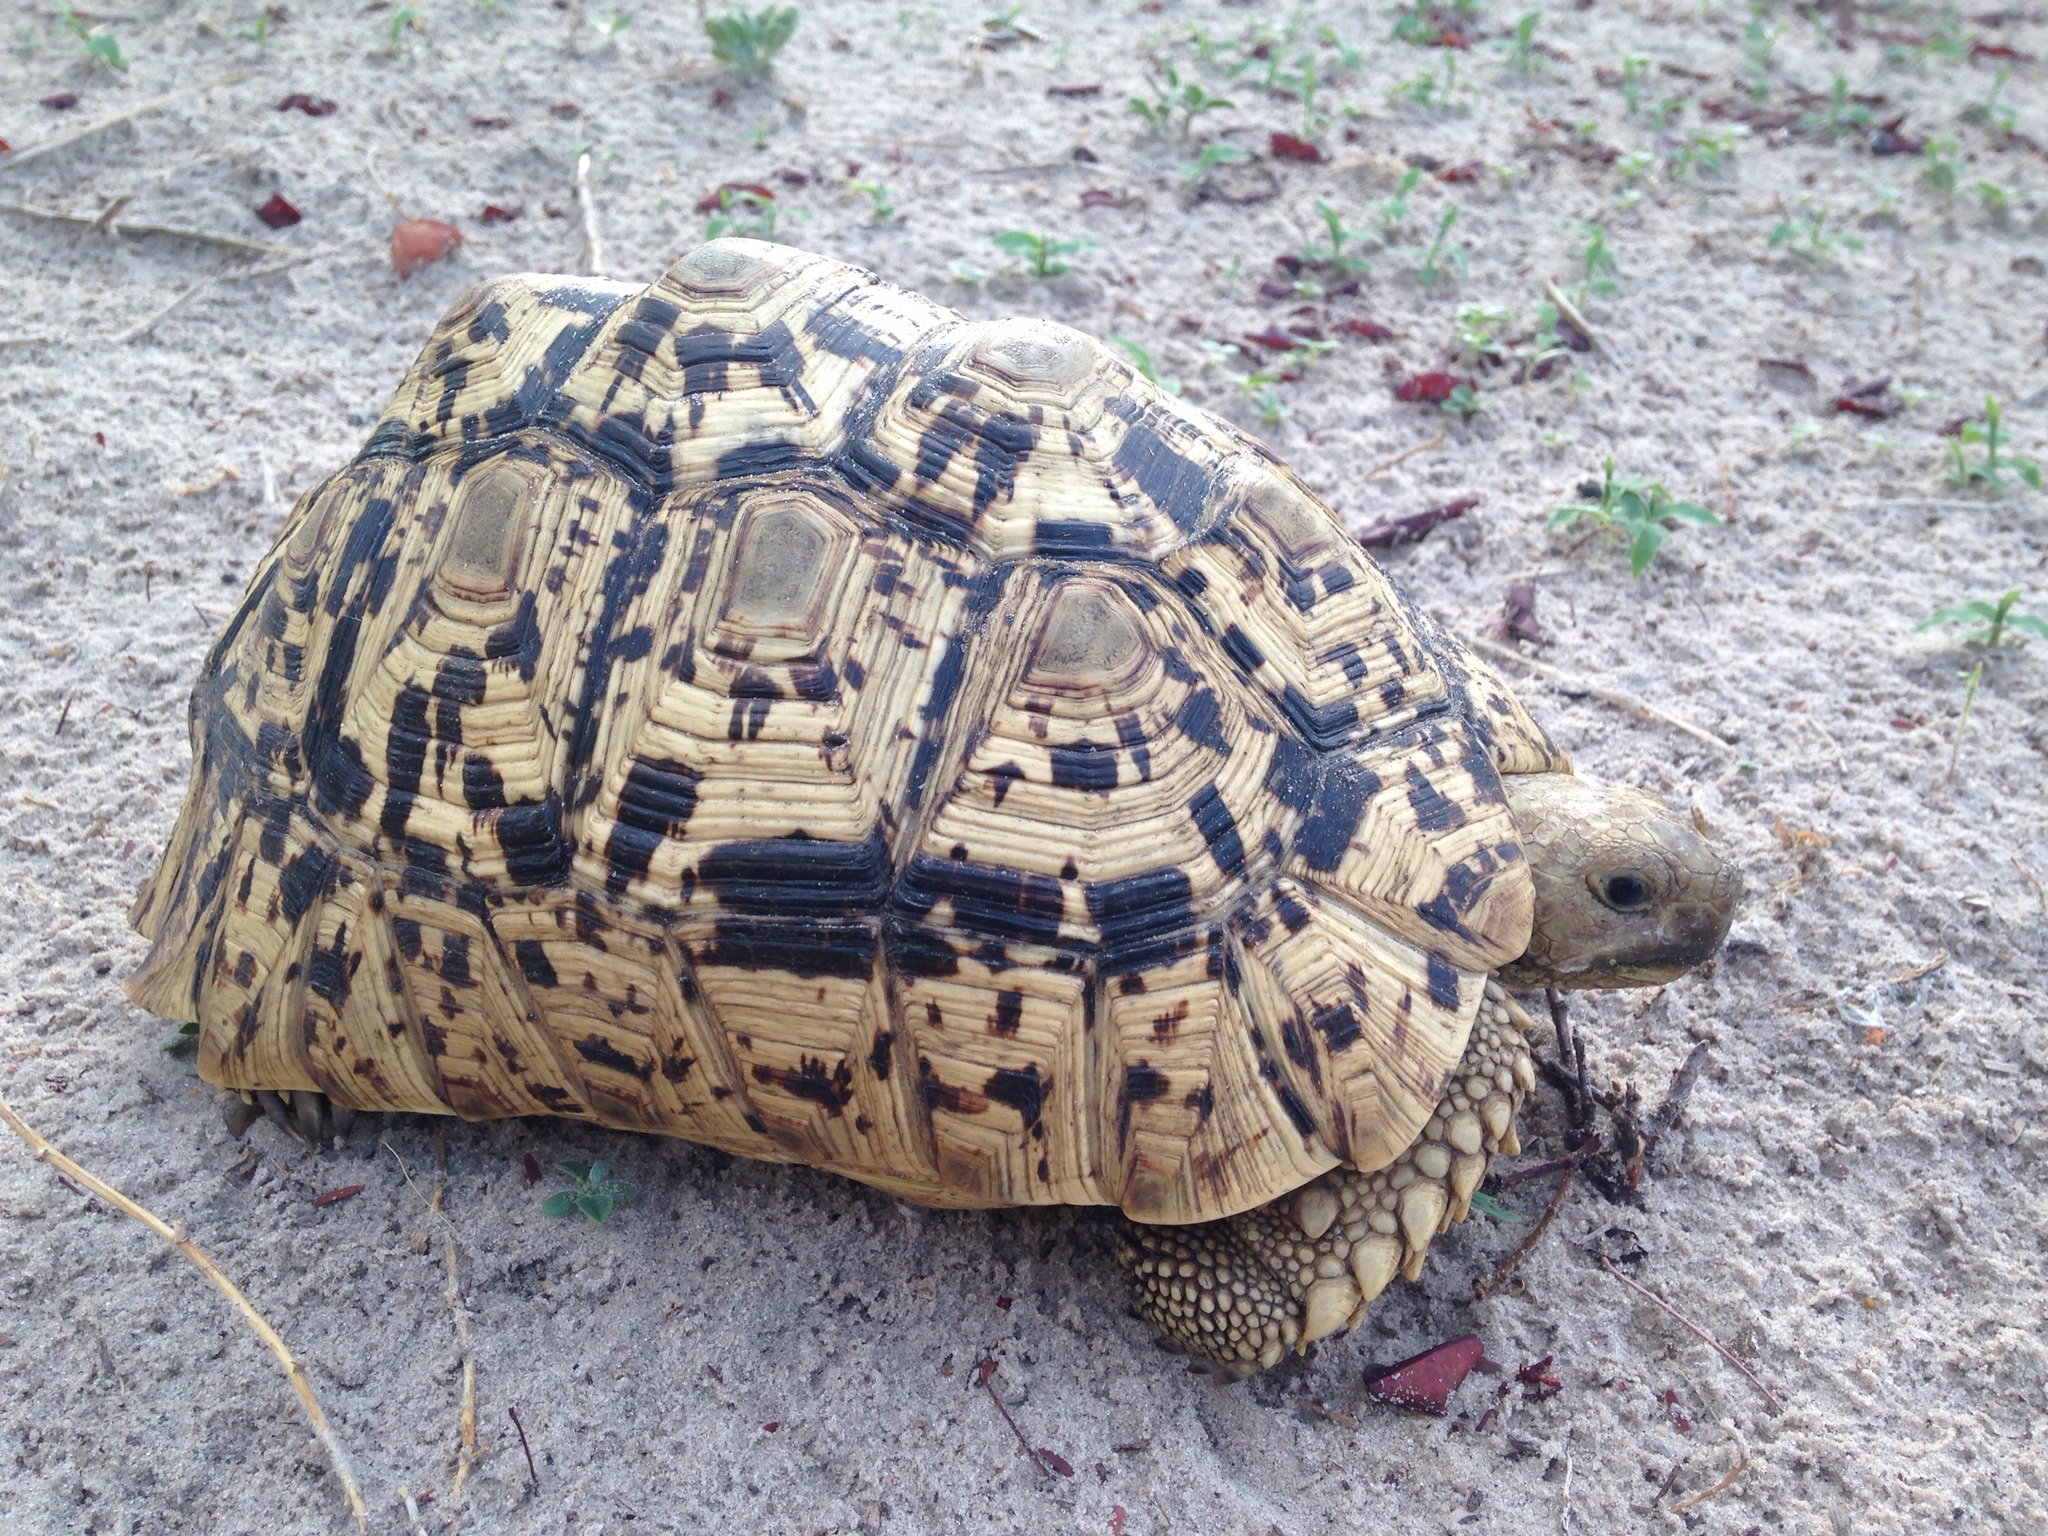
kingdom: Animalia
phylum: Chordata
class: Testudines
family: Testudinidae
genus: Stigmochelys
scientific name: Stigmochelys pardalis
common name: Leopard tortoise
